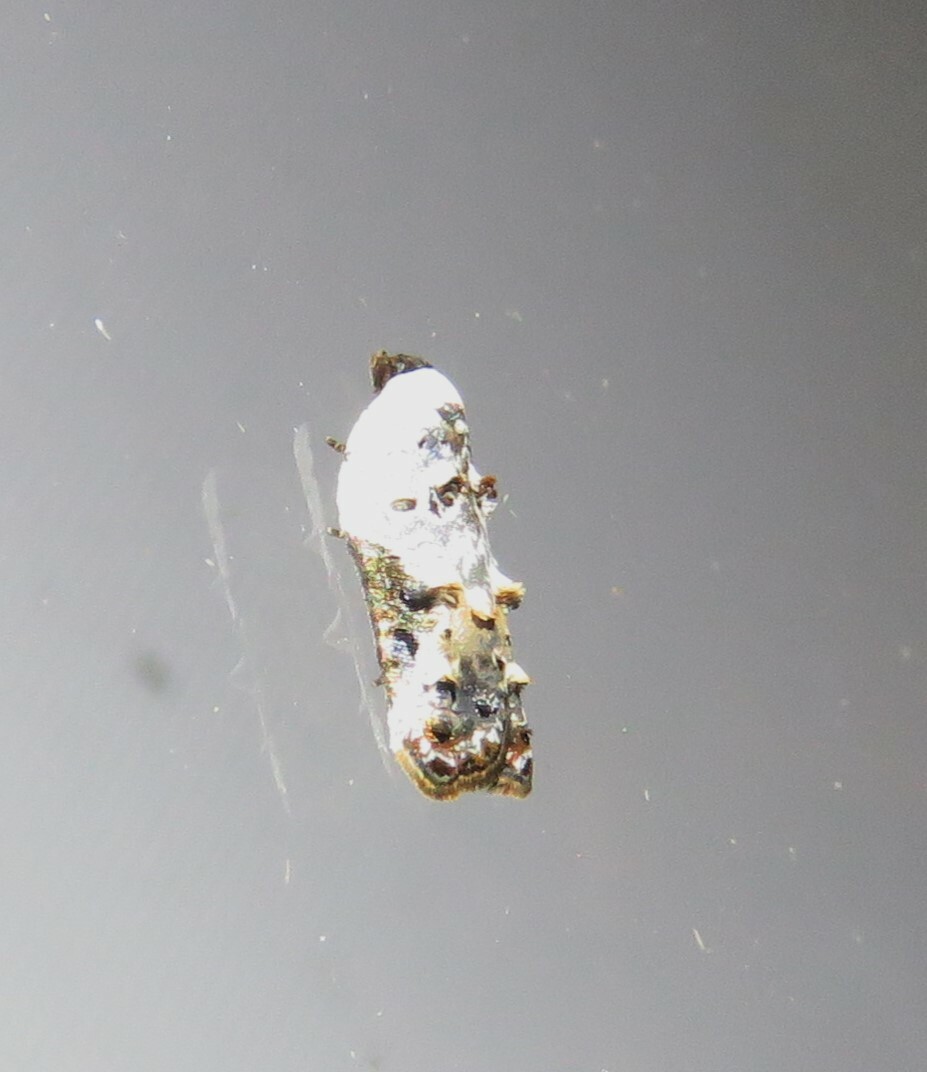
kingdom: Animalia
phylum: Arthropoda
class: Insecta
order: Lepidoptera
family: Tortricidae
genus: Acleris
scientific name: Acleris nivisellana
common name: Snowy-shouldered acleris moth
